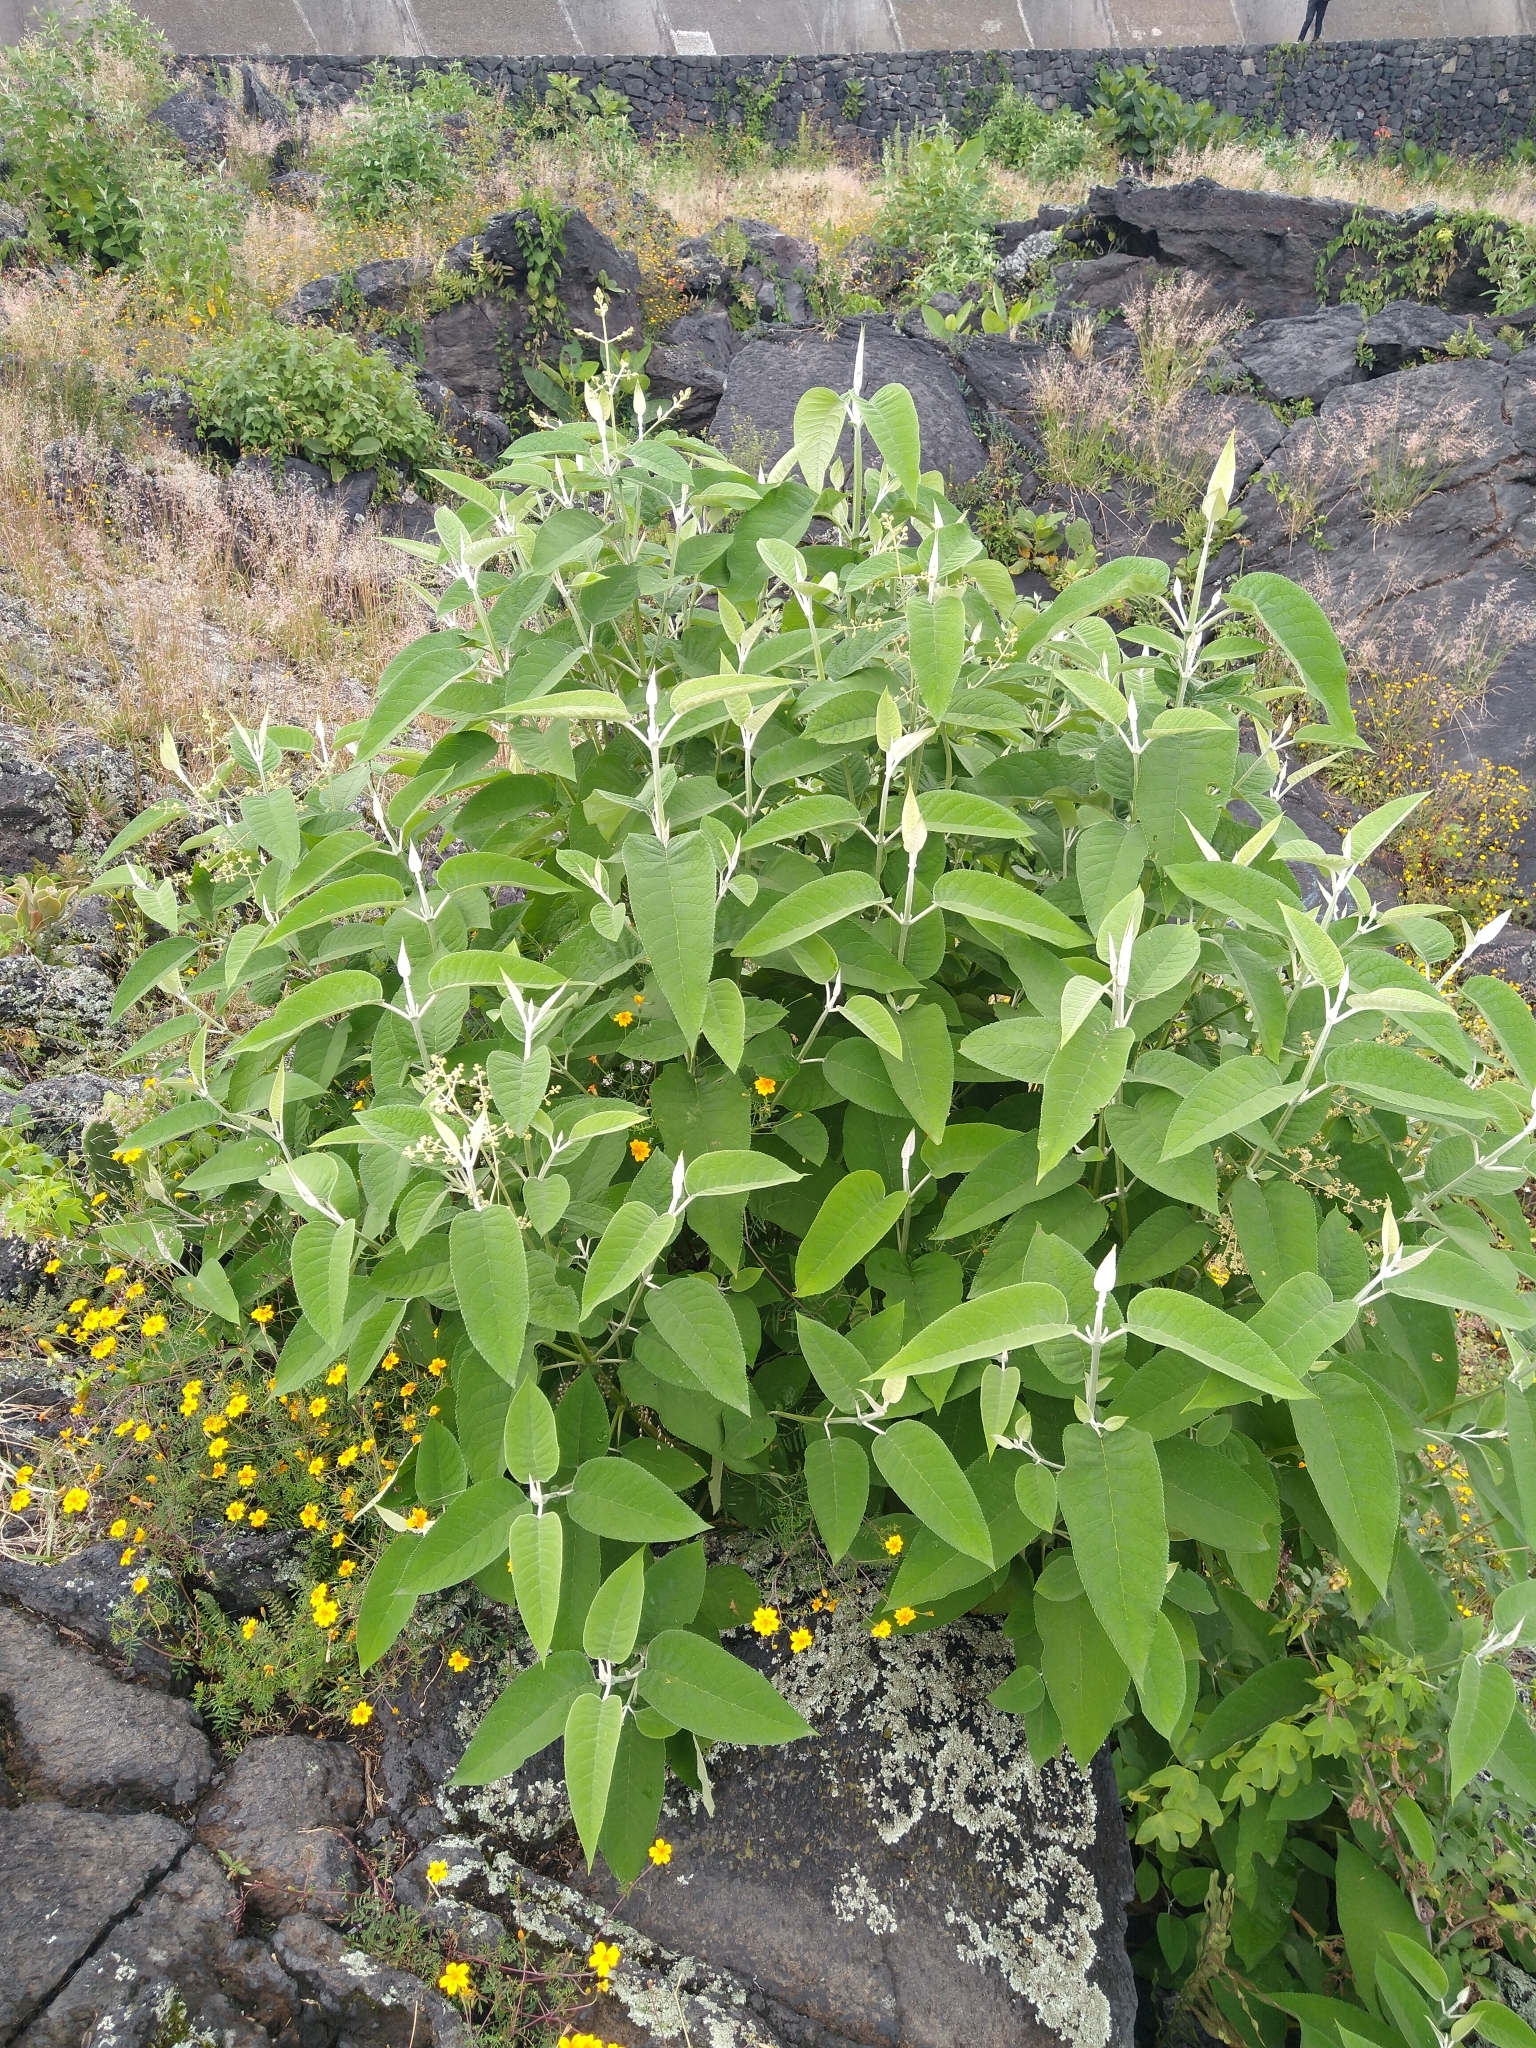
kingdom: Plantae
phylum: Tracheophyta
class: Magnoliopsida
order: Lamiales
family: Scrophulariaceae
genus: Buddleja
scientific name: Buddleja cordata
